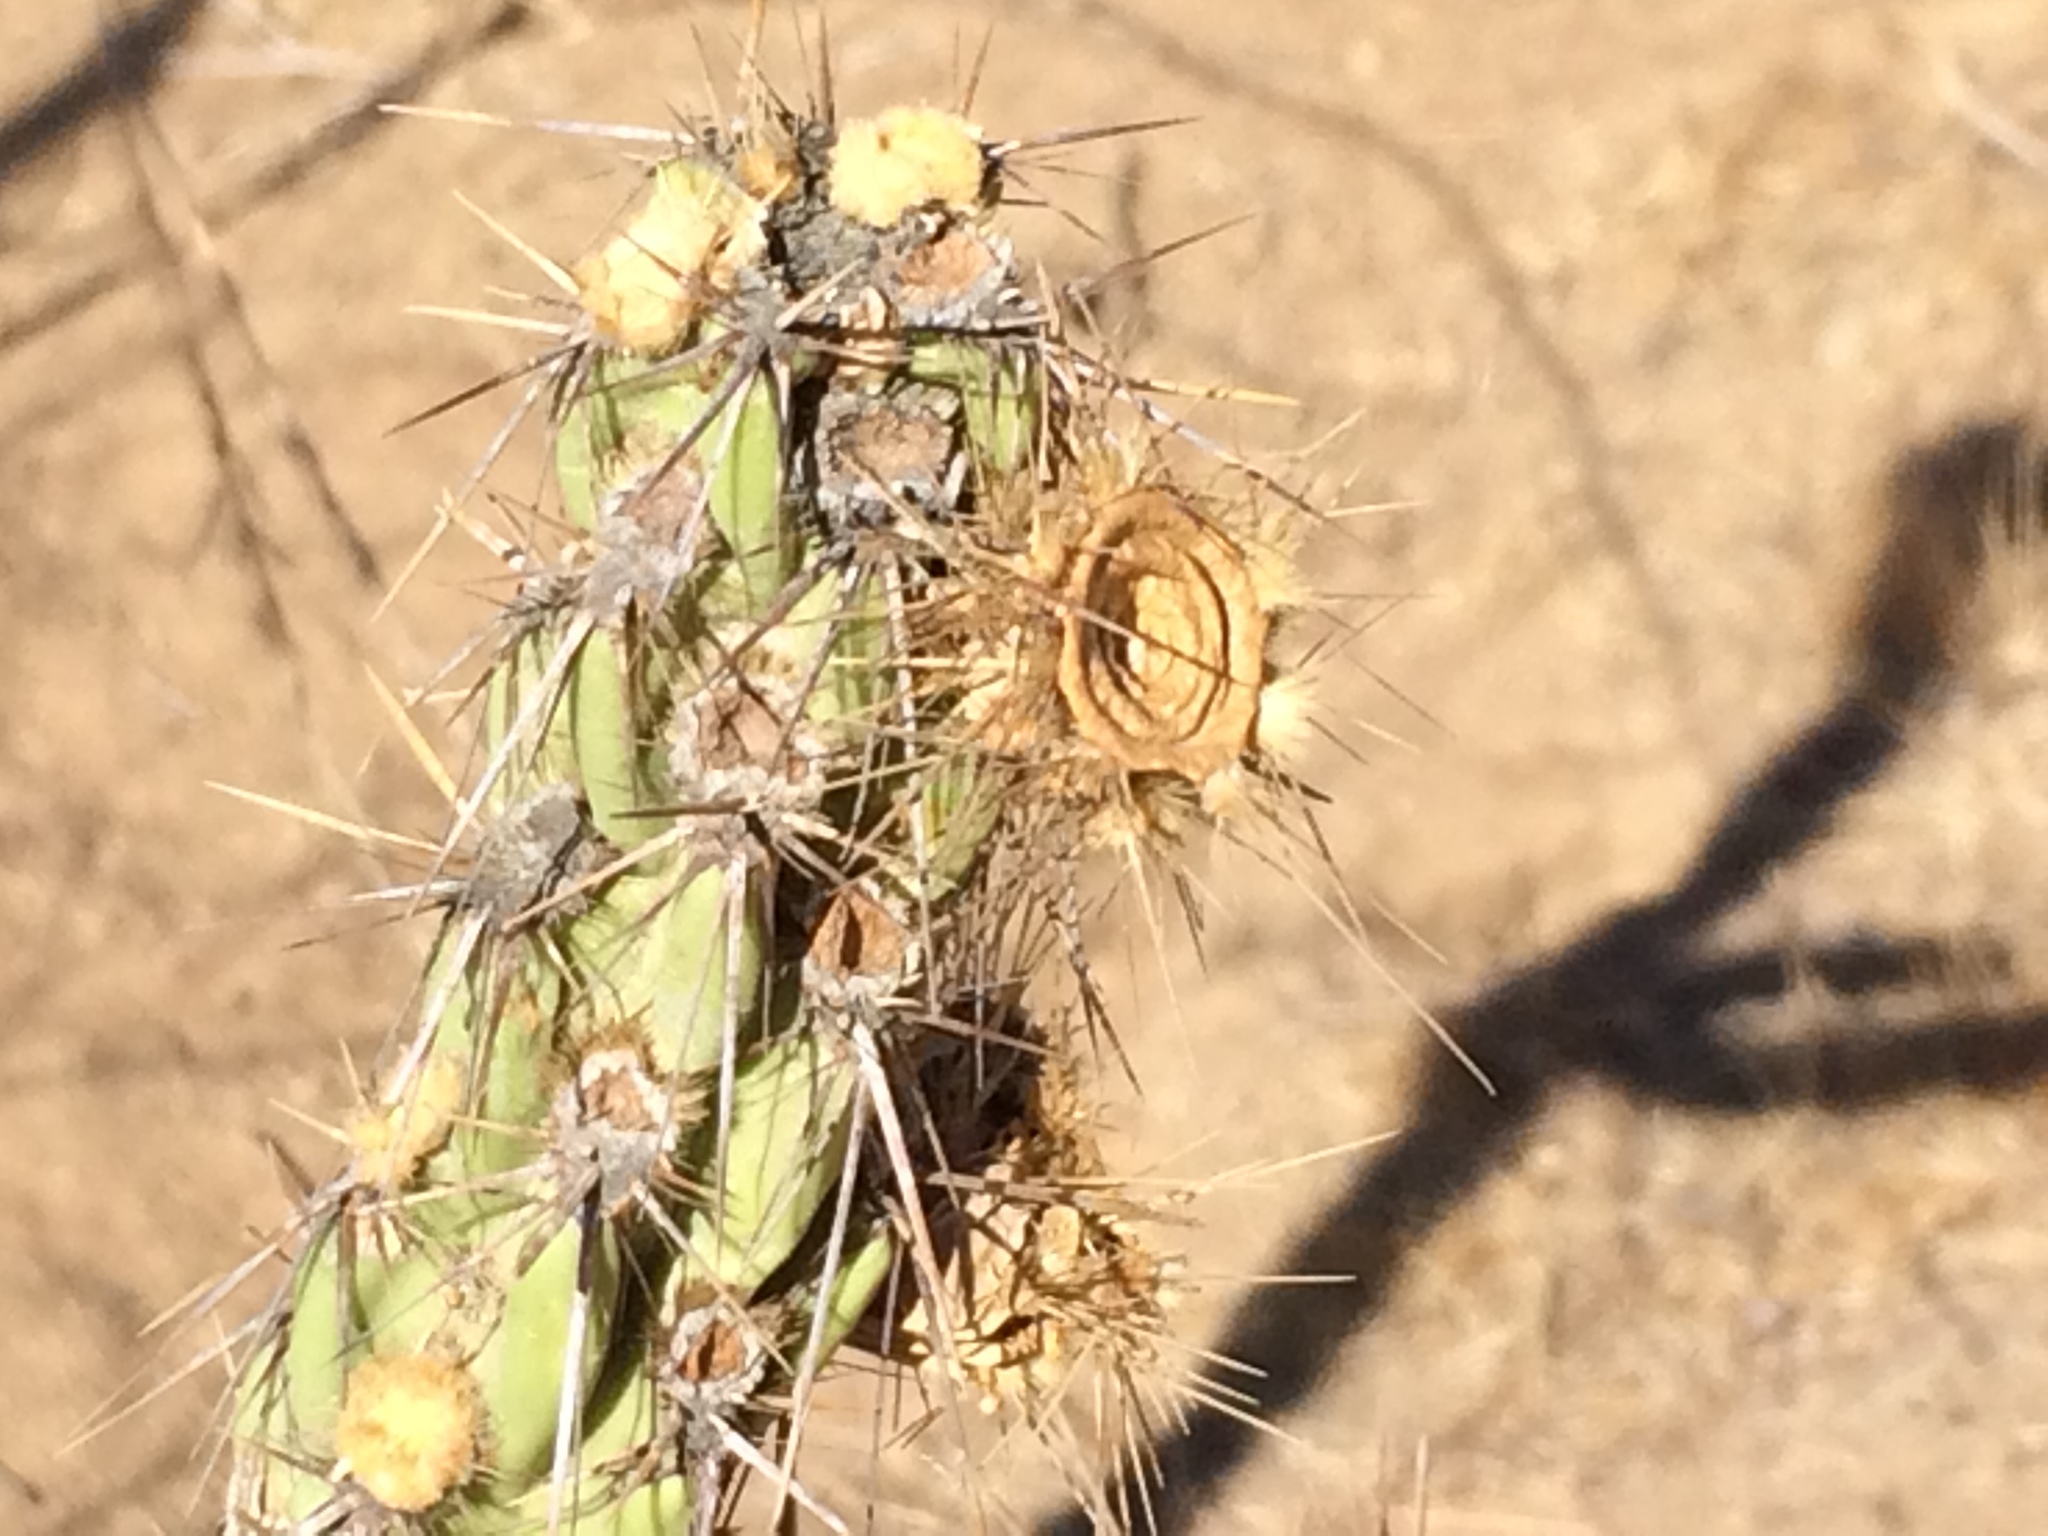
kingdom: Plantae
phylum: Tracheophyta
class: Magnoliopsida
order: Caryophyllales
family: Cactaceae
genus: Cylindropuntia
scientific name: Cylindropuntia bernardina
